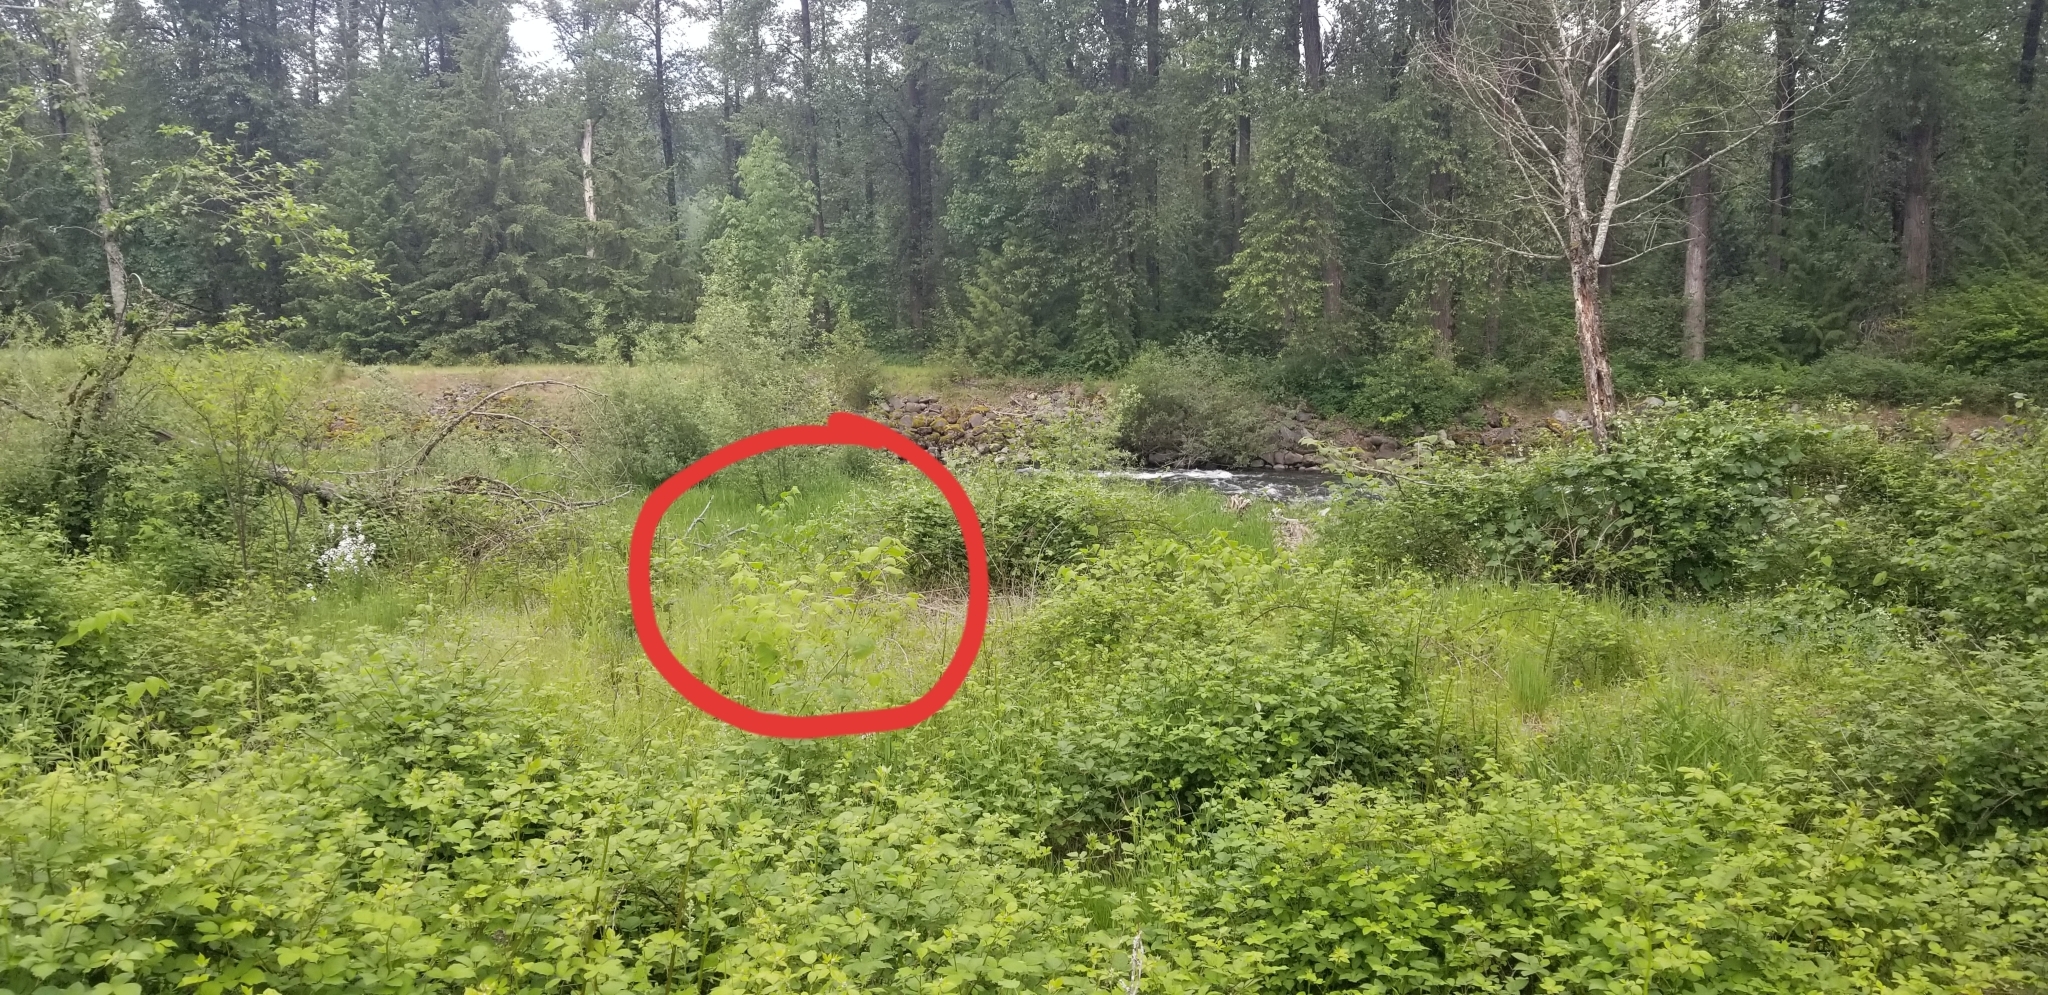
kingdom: Plantae
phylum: Tracheophyta
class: Magnoliopsida
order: Caryophyllales
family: Polygonaceae
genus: Reynoutria
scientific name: Reynoutria bohemica
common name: Bohemian knotweed
